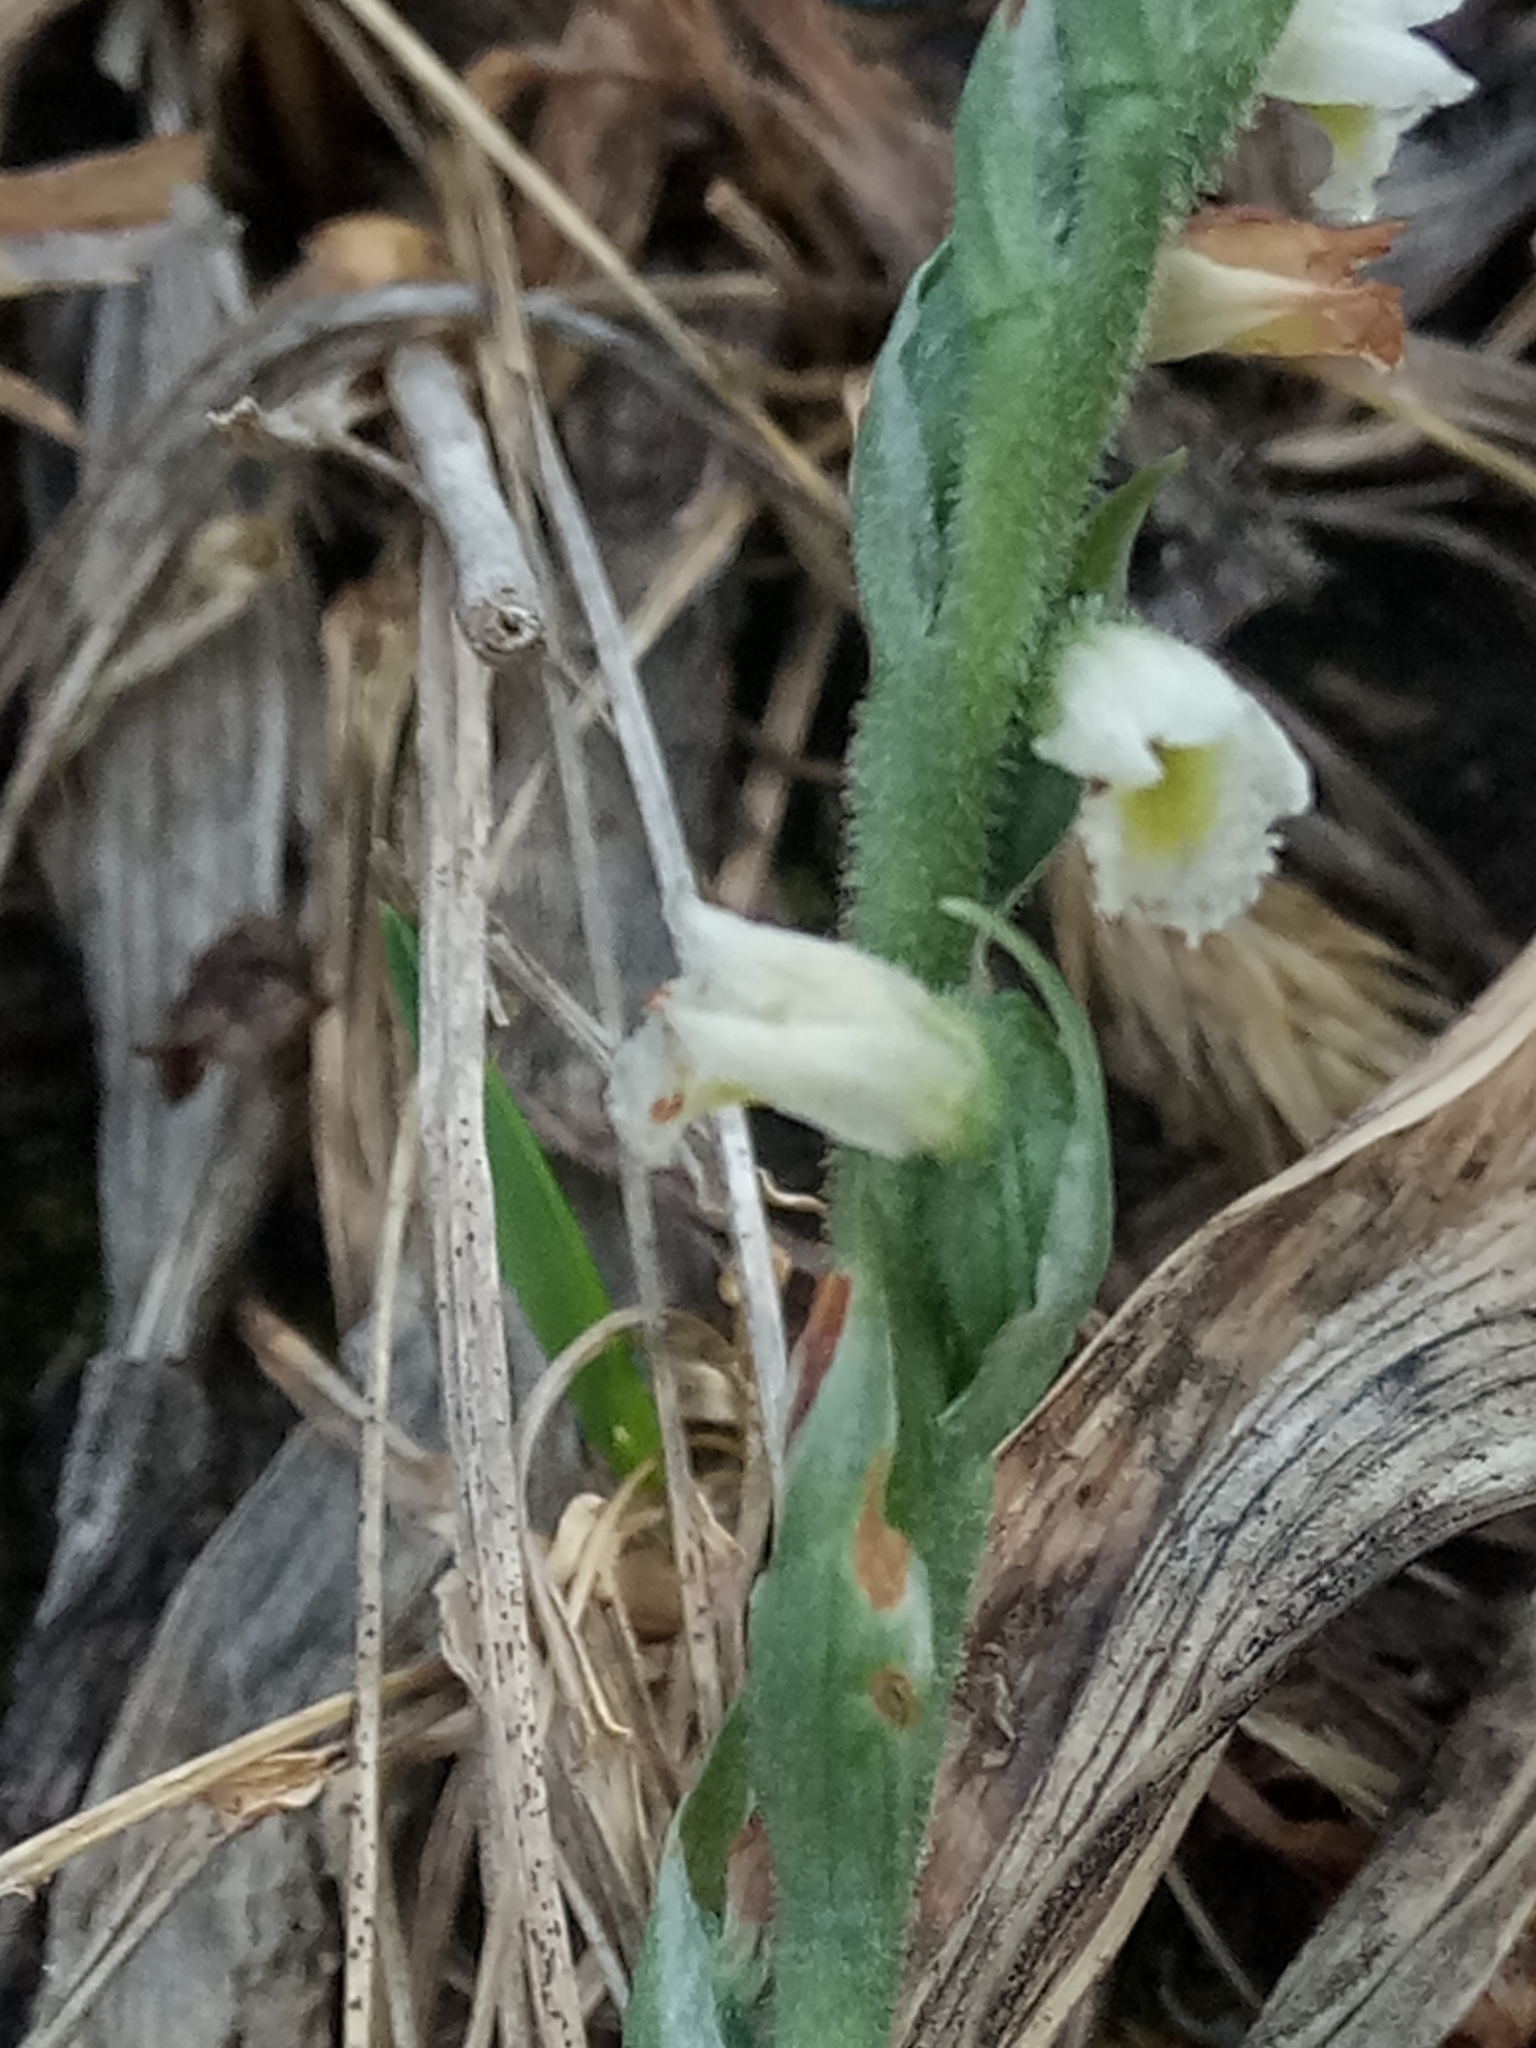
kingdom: Plantae
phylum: Tracheophyta
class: Liliopsida
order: Asparagales
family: Orchidaceae
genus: Spiranthes
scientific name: Spiranthes spiralis
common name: Autumn lady's-tresses
